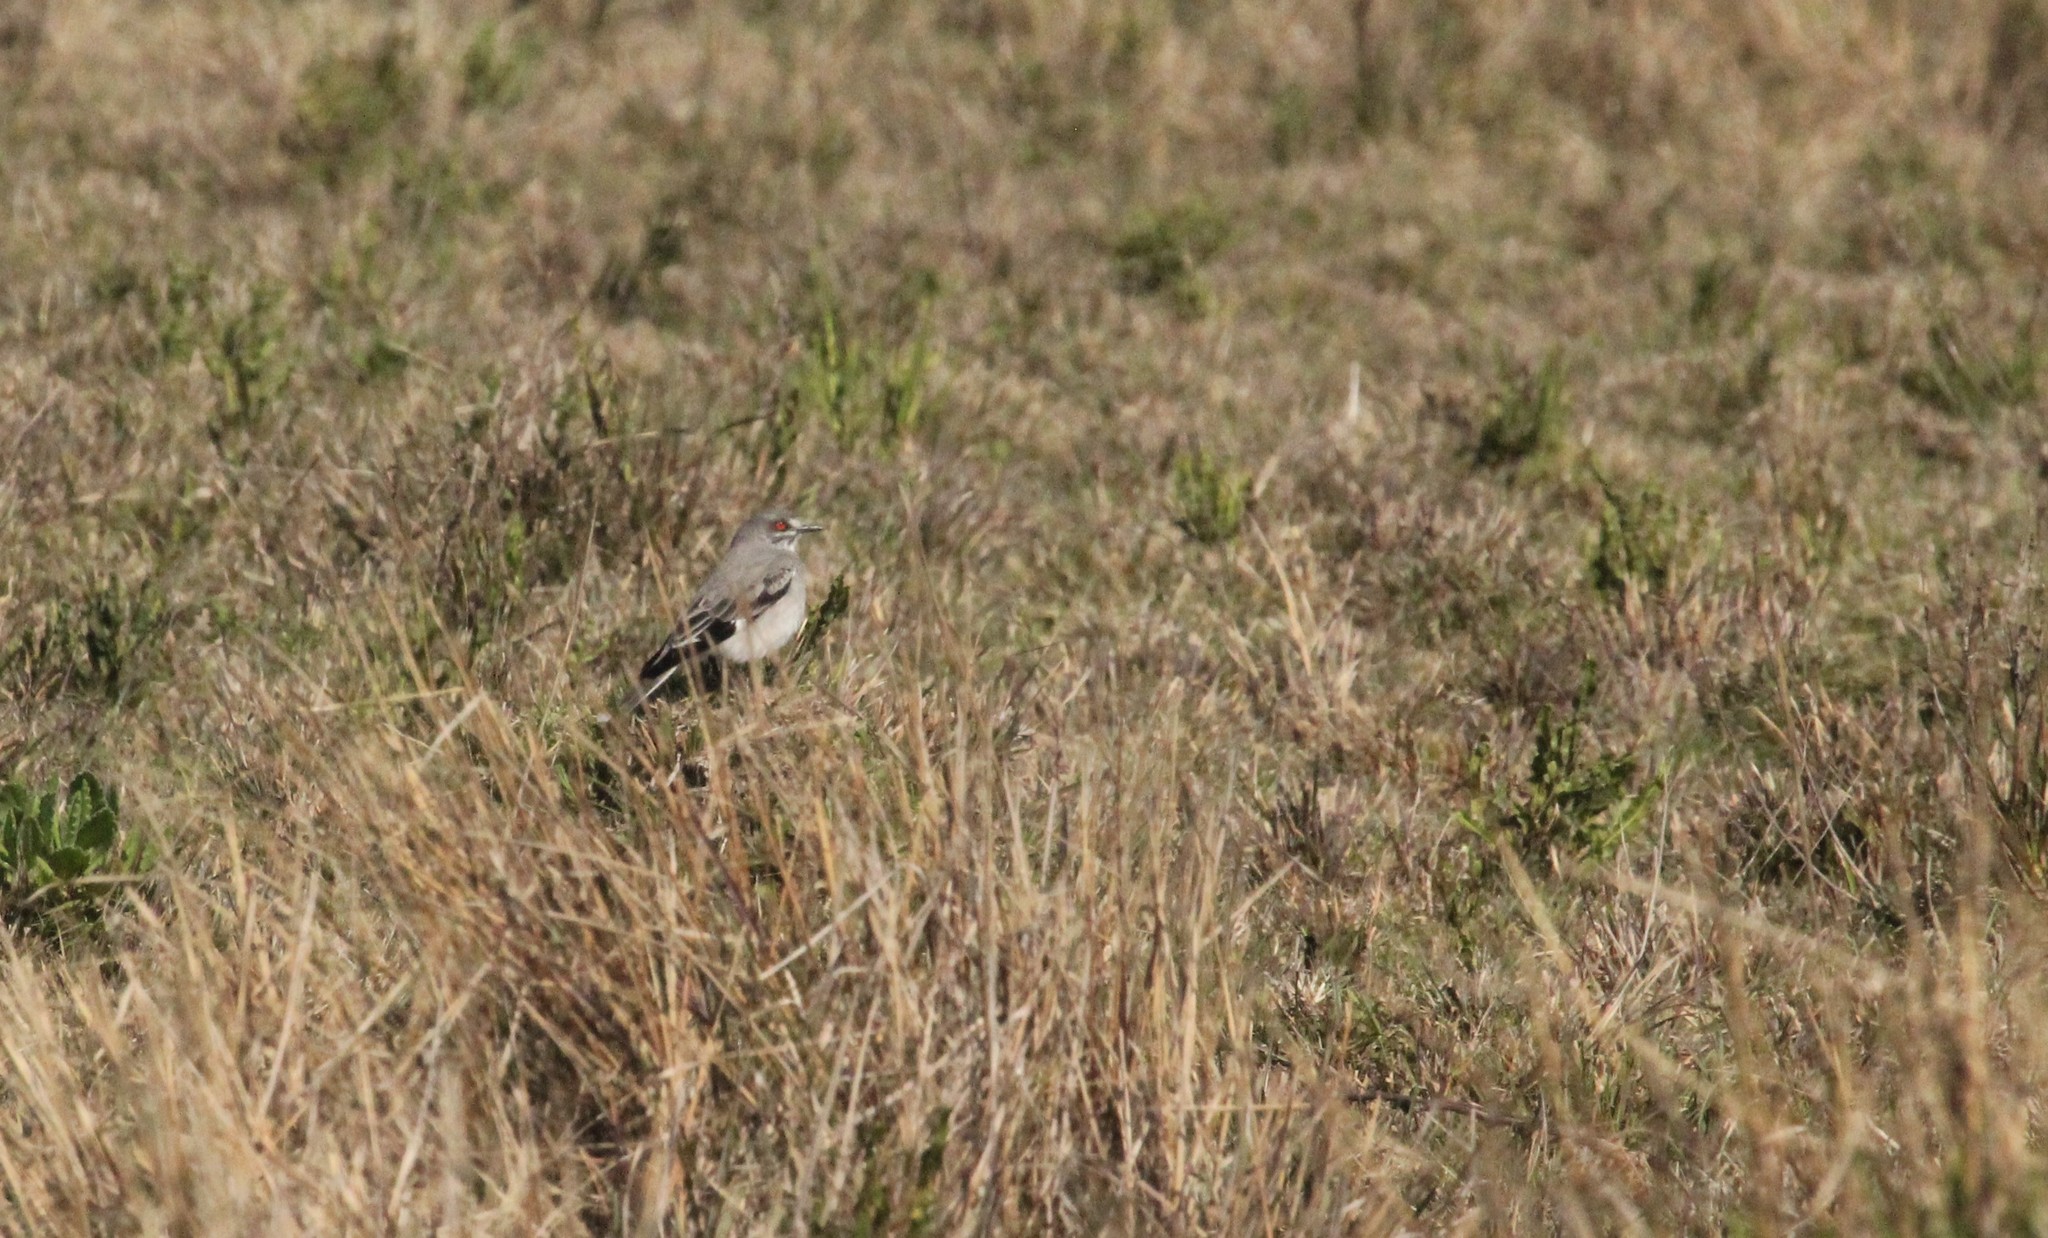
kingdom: Animalia
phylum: Chordata
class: Aves
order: Passeriformes
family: Tyrannidae
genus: Xolmis
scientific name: Xolmis cinereus
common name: Grey monjita
